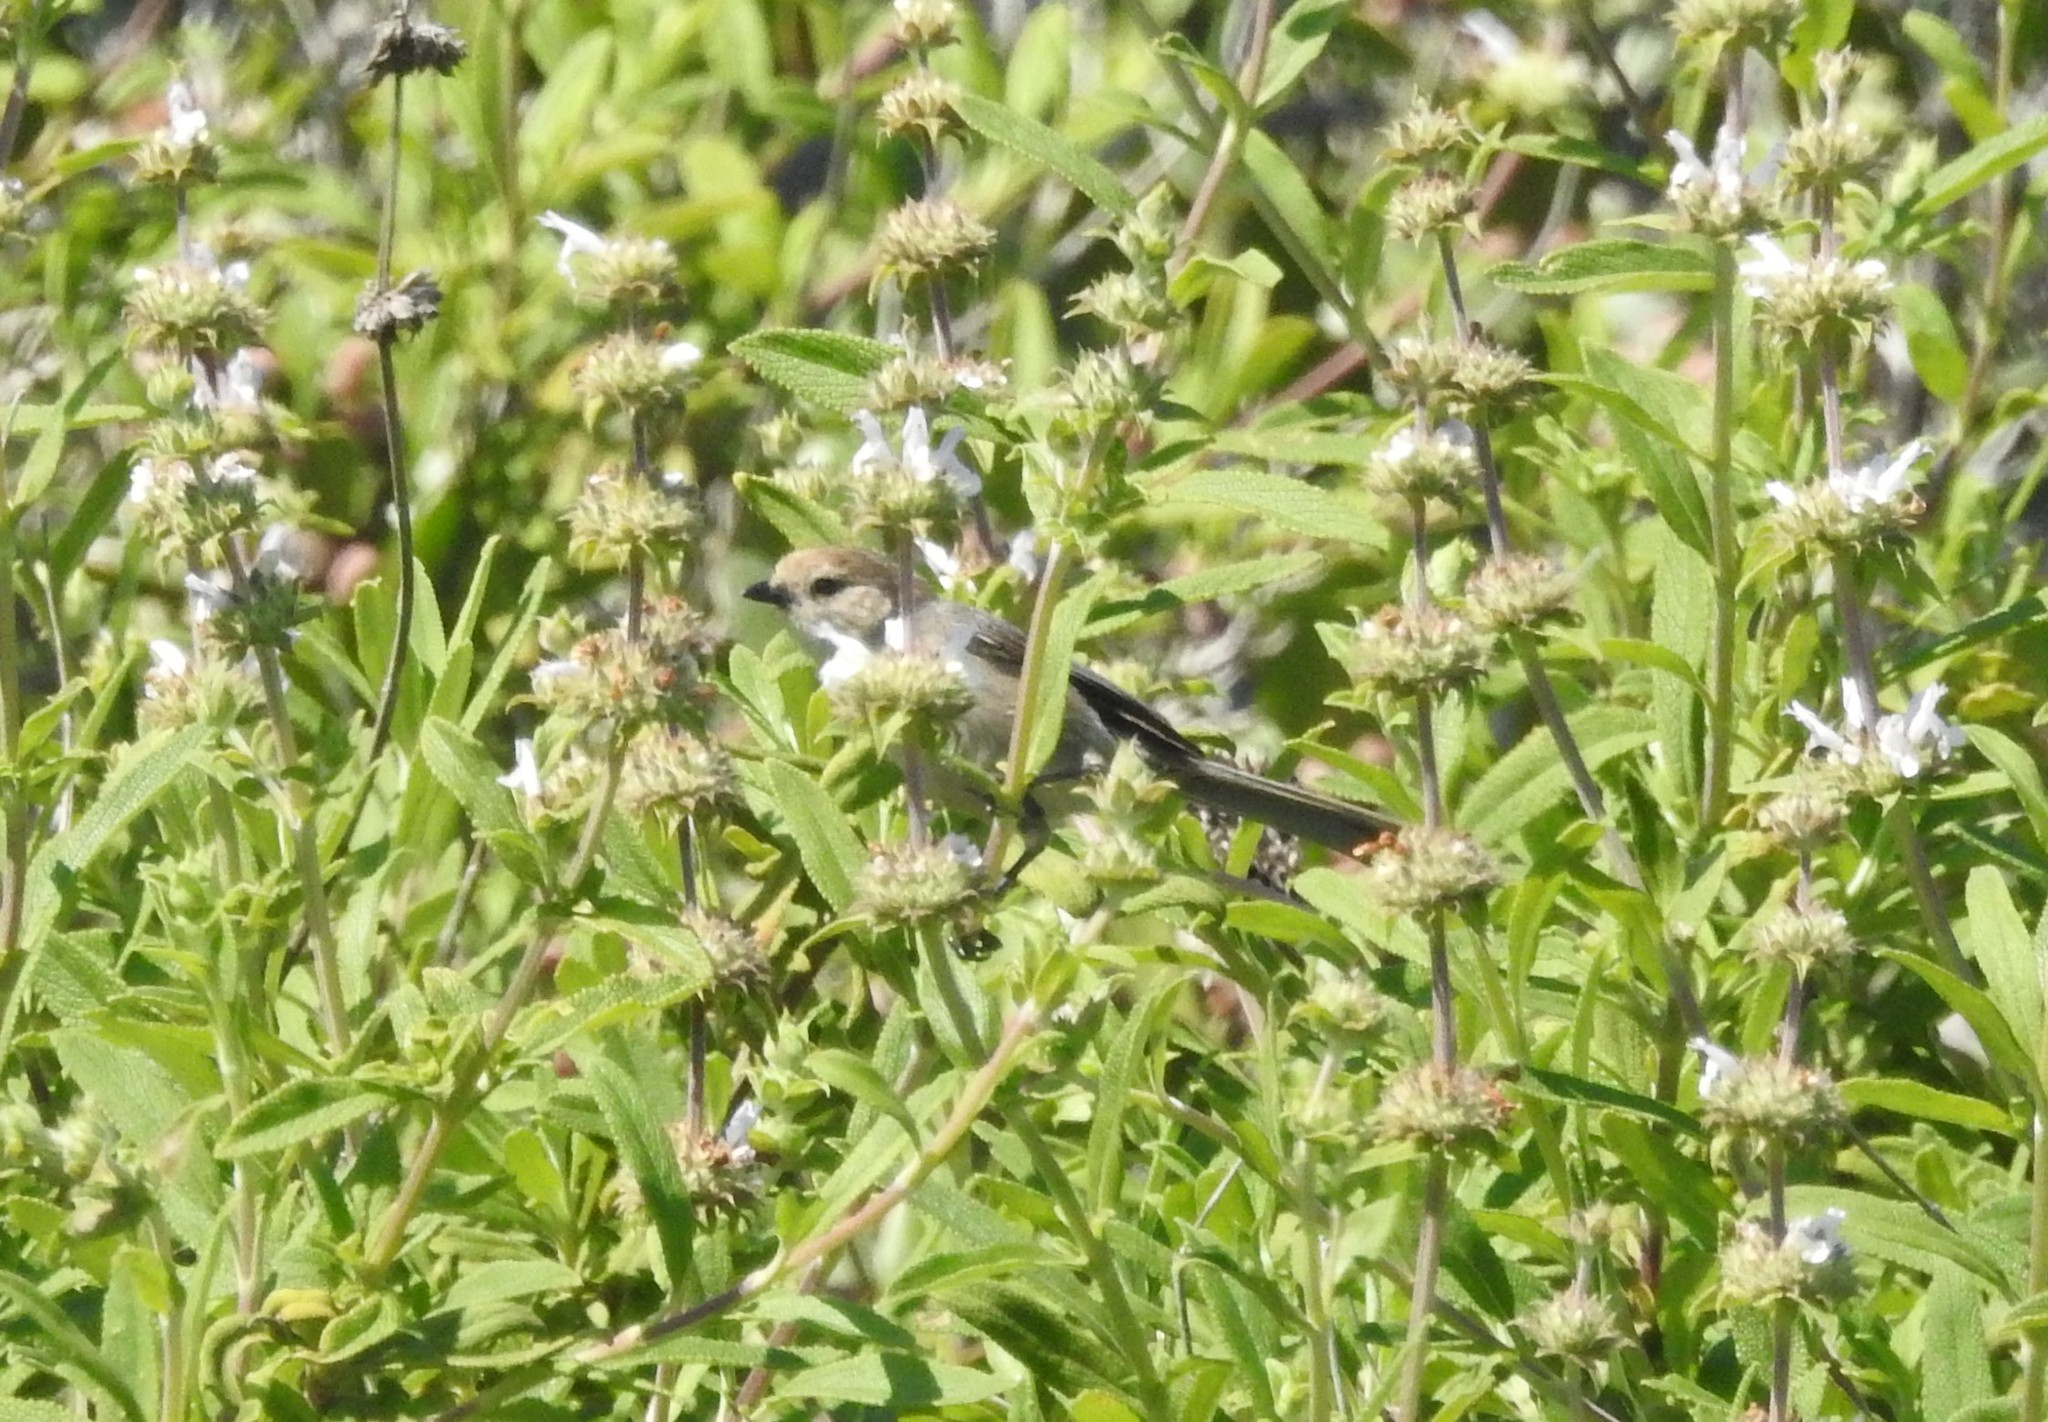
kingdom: Animalia
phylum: Chordata
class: Aves
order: Passeriformes
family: Aegithalidae
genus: Psaltriparus
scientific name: Psaltriparus minimus
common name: American bushtit
